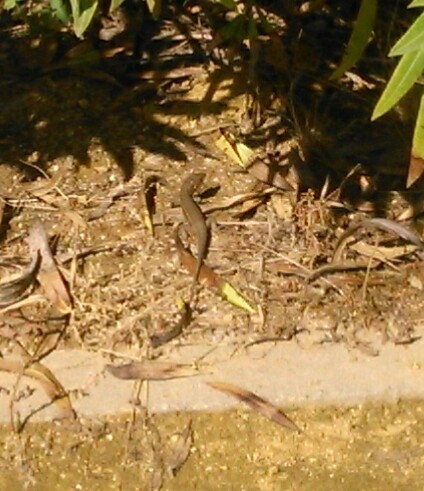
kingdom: Animalia
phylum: Chordata
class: Squamata
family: Lacertidae
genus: Psammodromus
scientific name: Psammodromus algirus
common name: Algerian psammodromus
